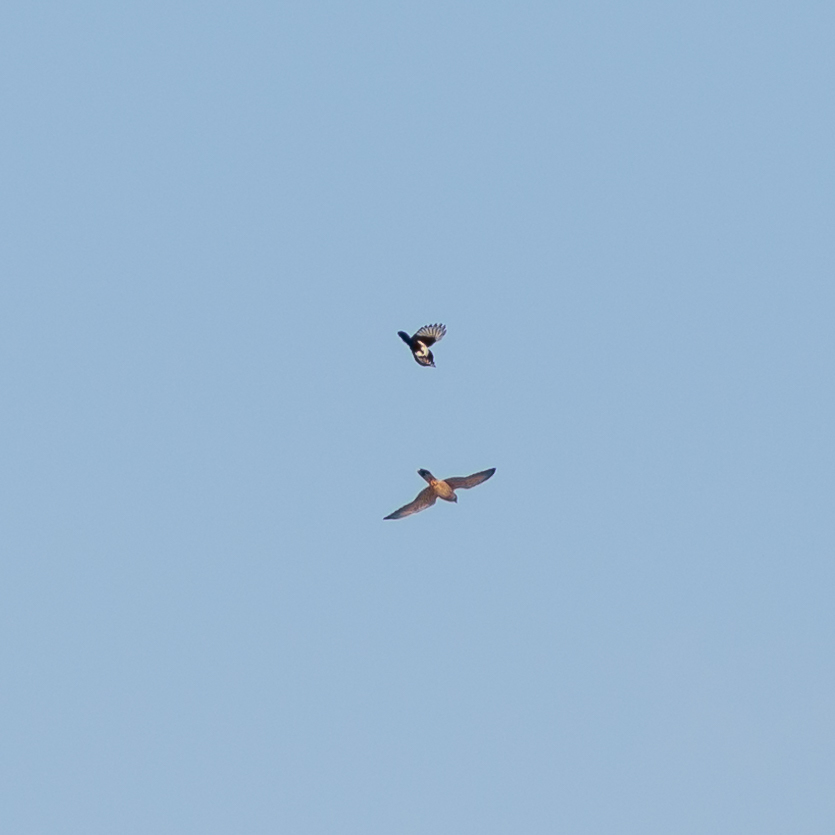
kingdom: Animalia
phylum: Chordata
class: Aves
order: Falconiformes
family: Falconidae
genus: Falco
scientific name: Falco tinnunculus
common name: Common kestrel
